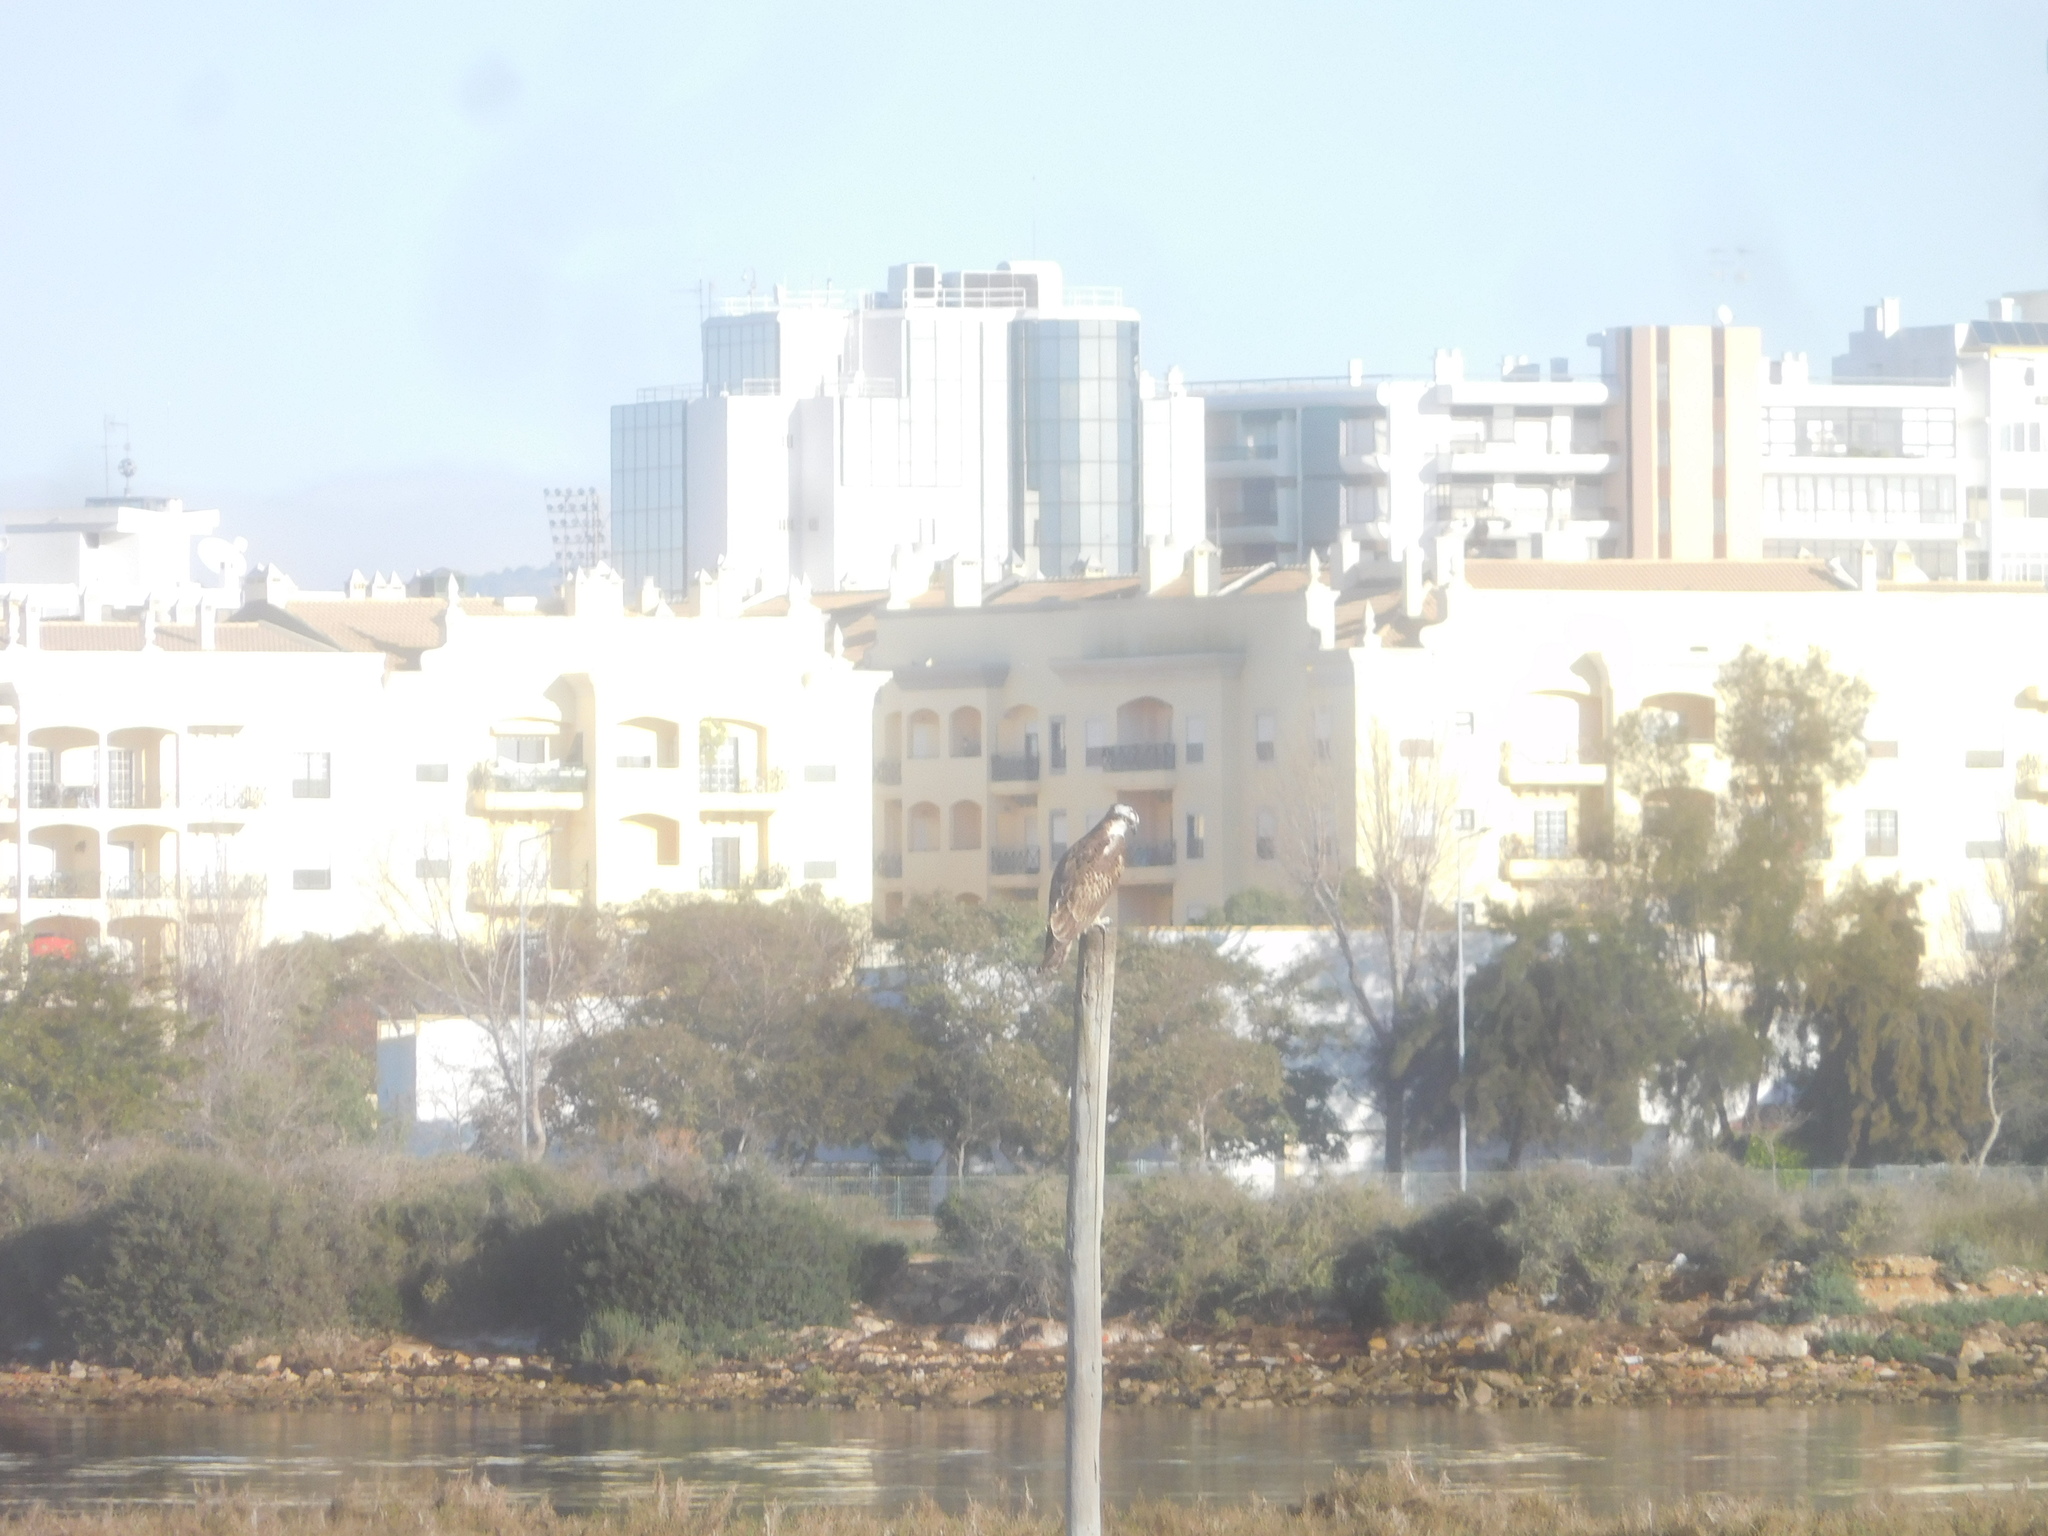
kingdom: Animalia
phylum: Chordata
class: Aves
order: Accipitriformes
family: Pandionidae
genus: Pandion
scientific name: Pandion haliaetus
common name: Osprey
